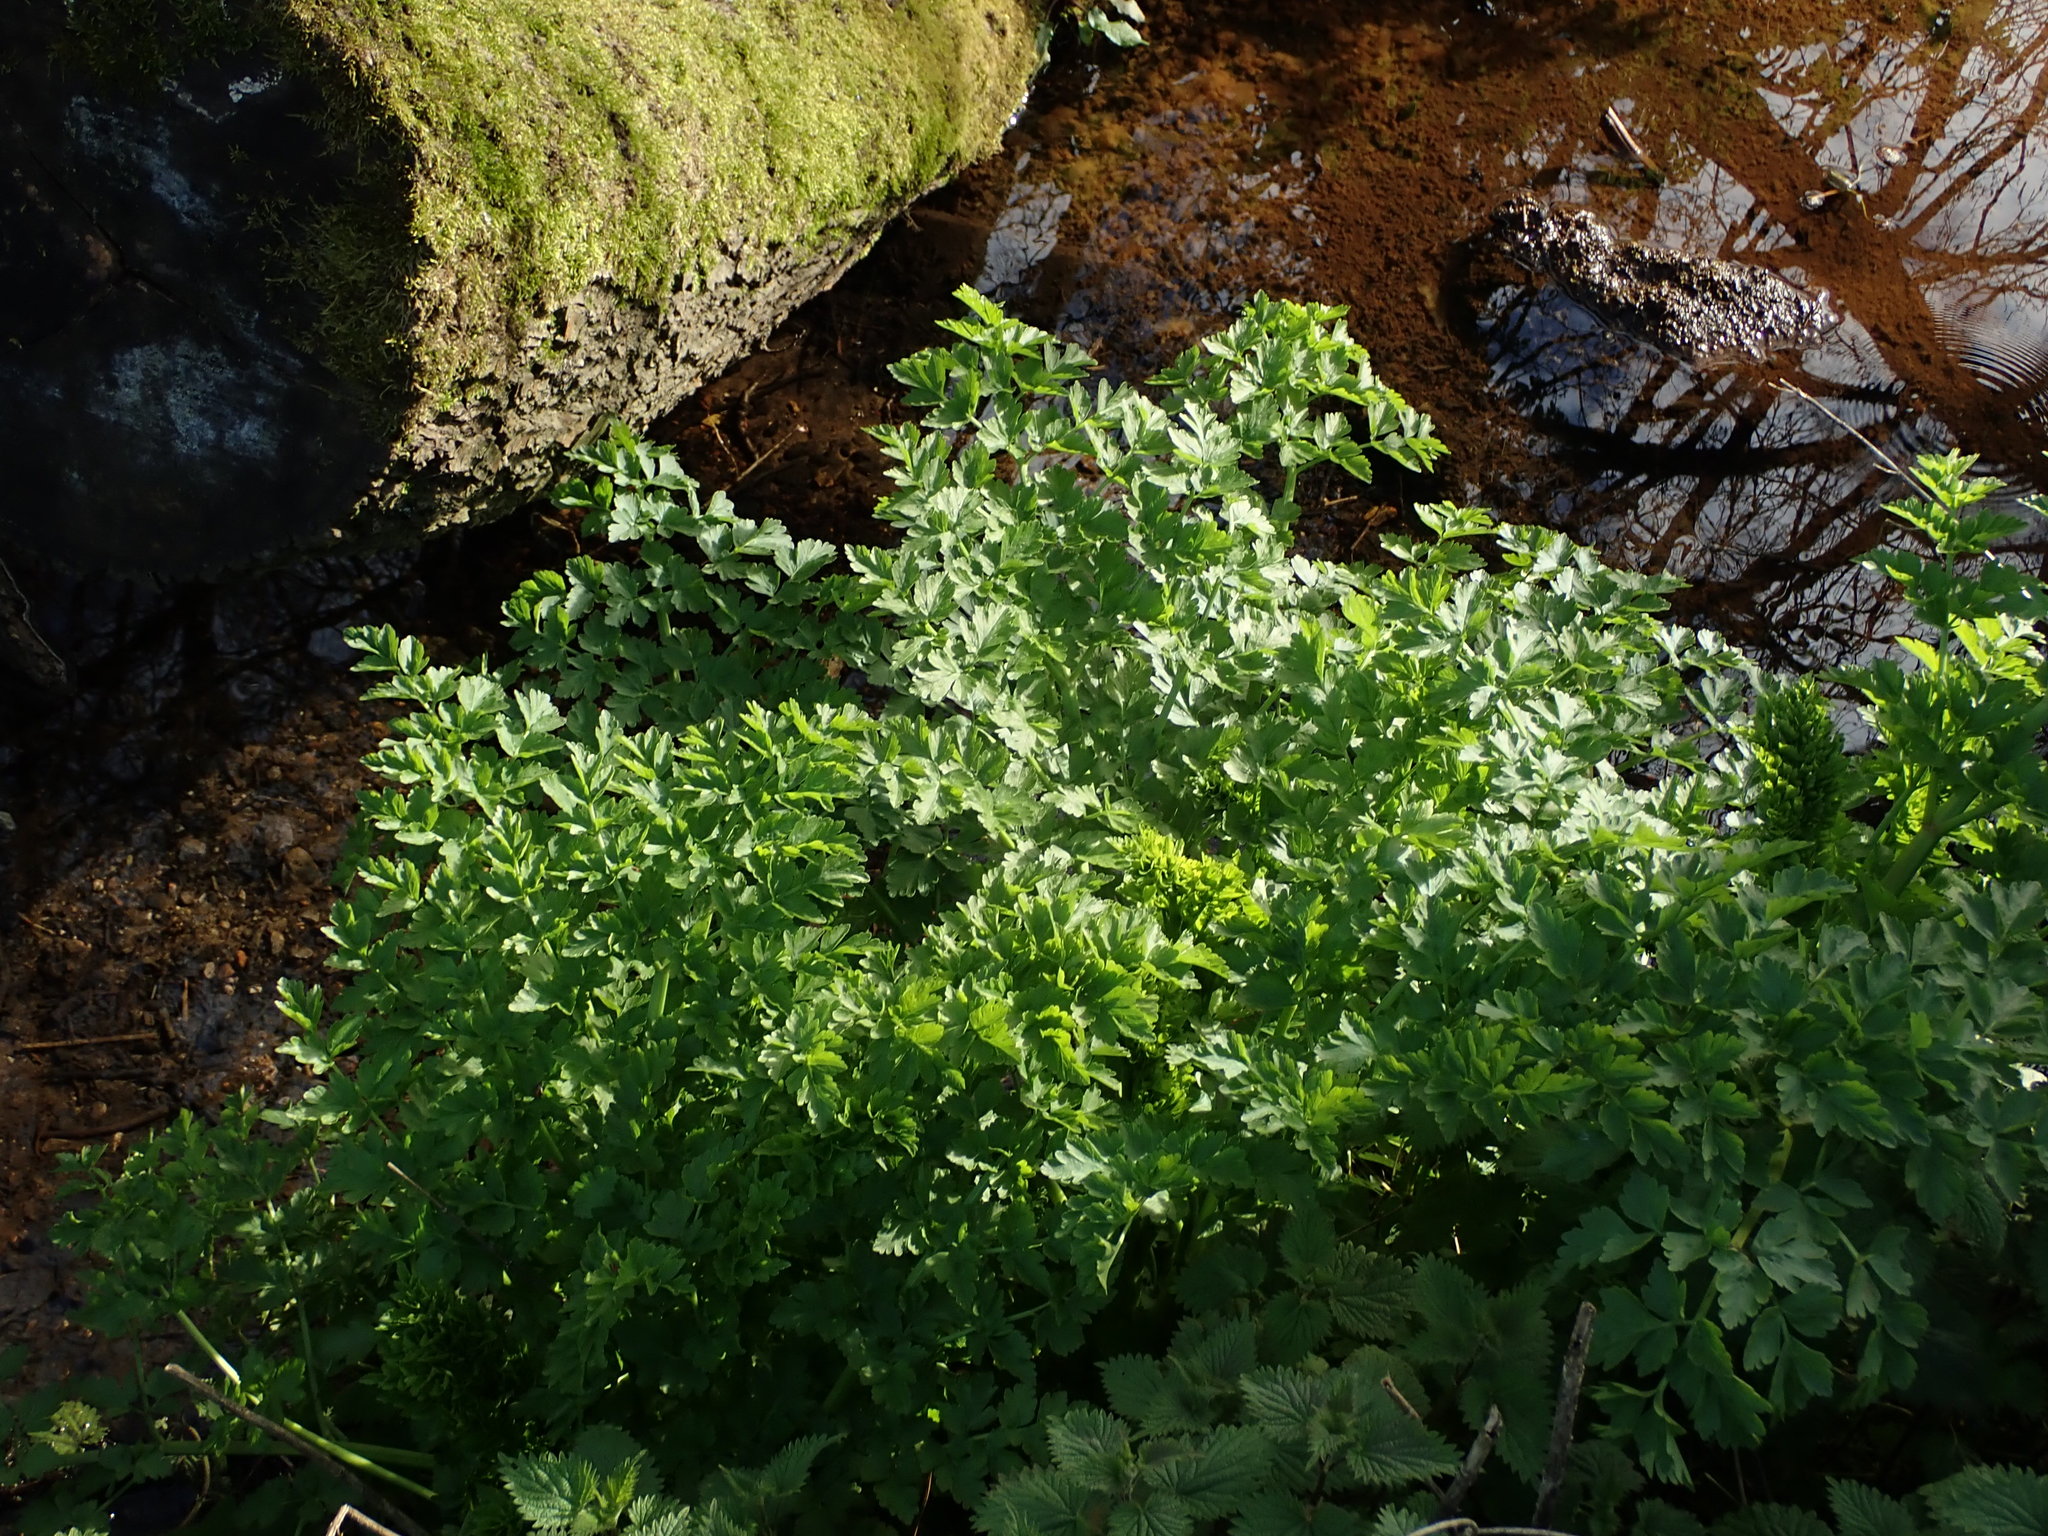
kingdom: Plantae
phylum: Tracheophyta
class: Magnoliopsida
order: Apiales
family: Apiaceae
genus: Oenanthe
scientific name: Oenanthe crocata
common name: Hemlock water-dropwort
